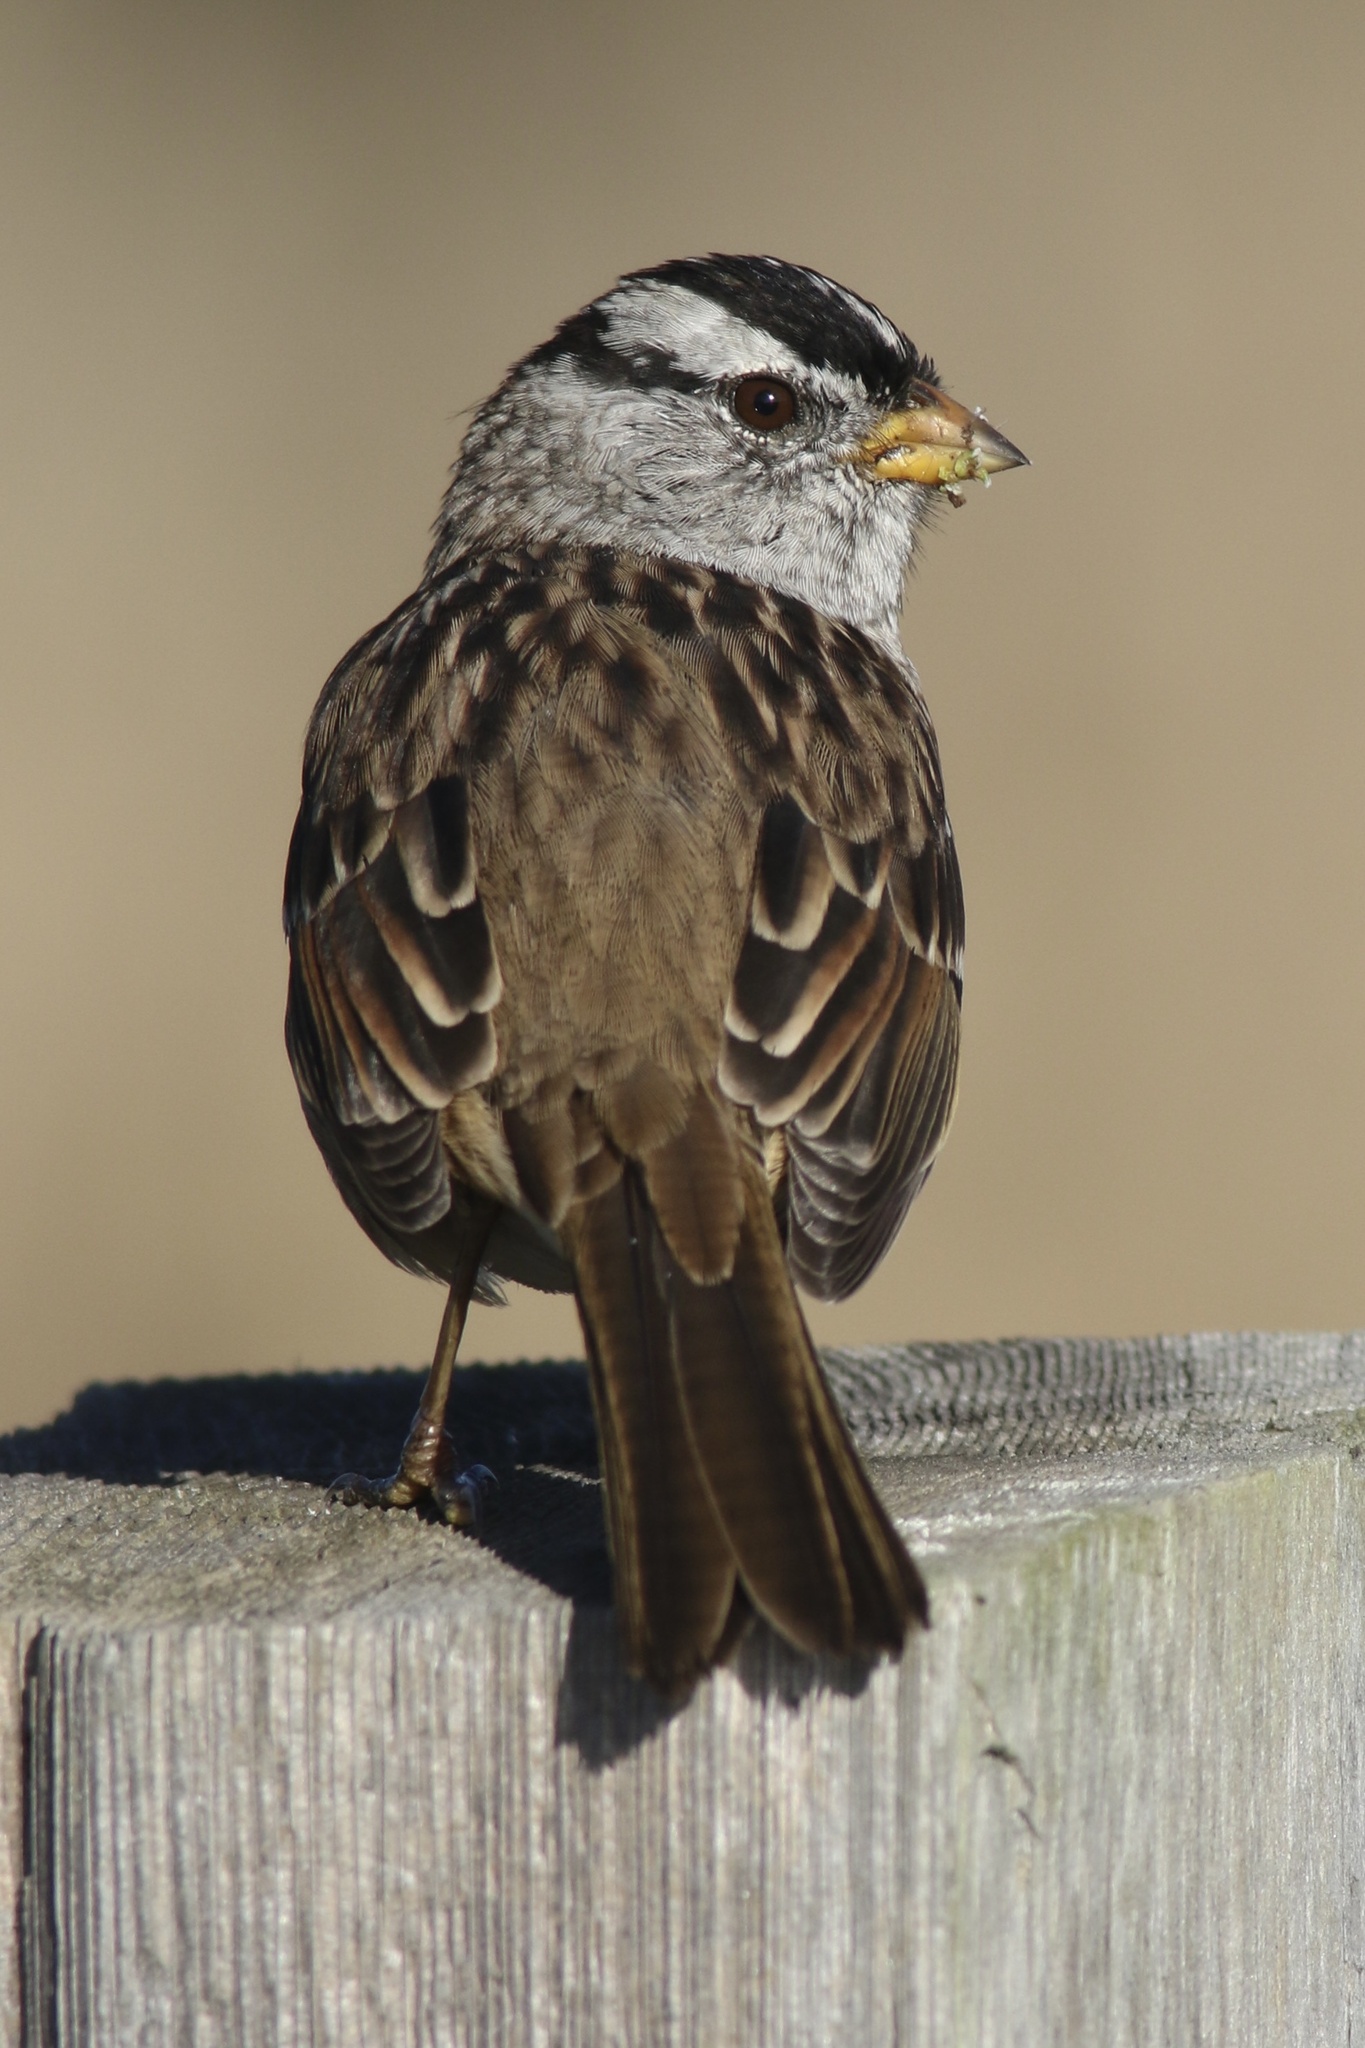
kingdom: Animalia
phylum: Chordata
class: Aves
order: Passeriformes
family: Passerellidae
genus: Zonotrichia
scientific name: Zonotrichia leucophrys
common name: White-crowned sparrow
